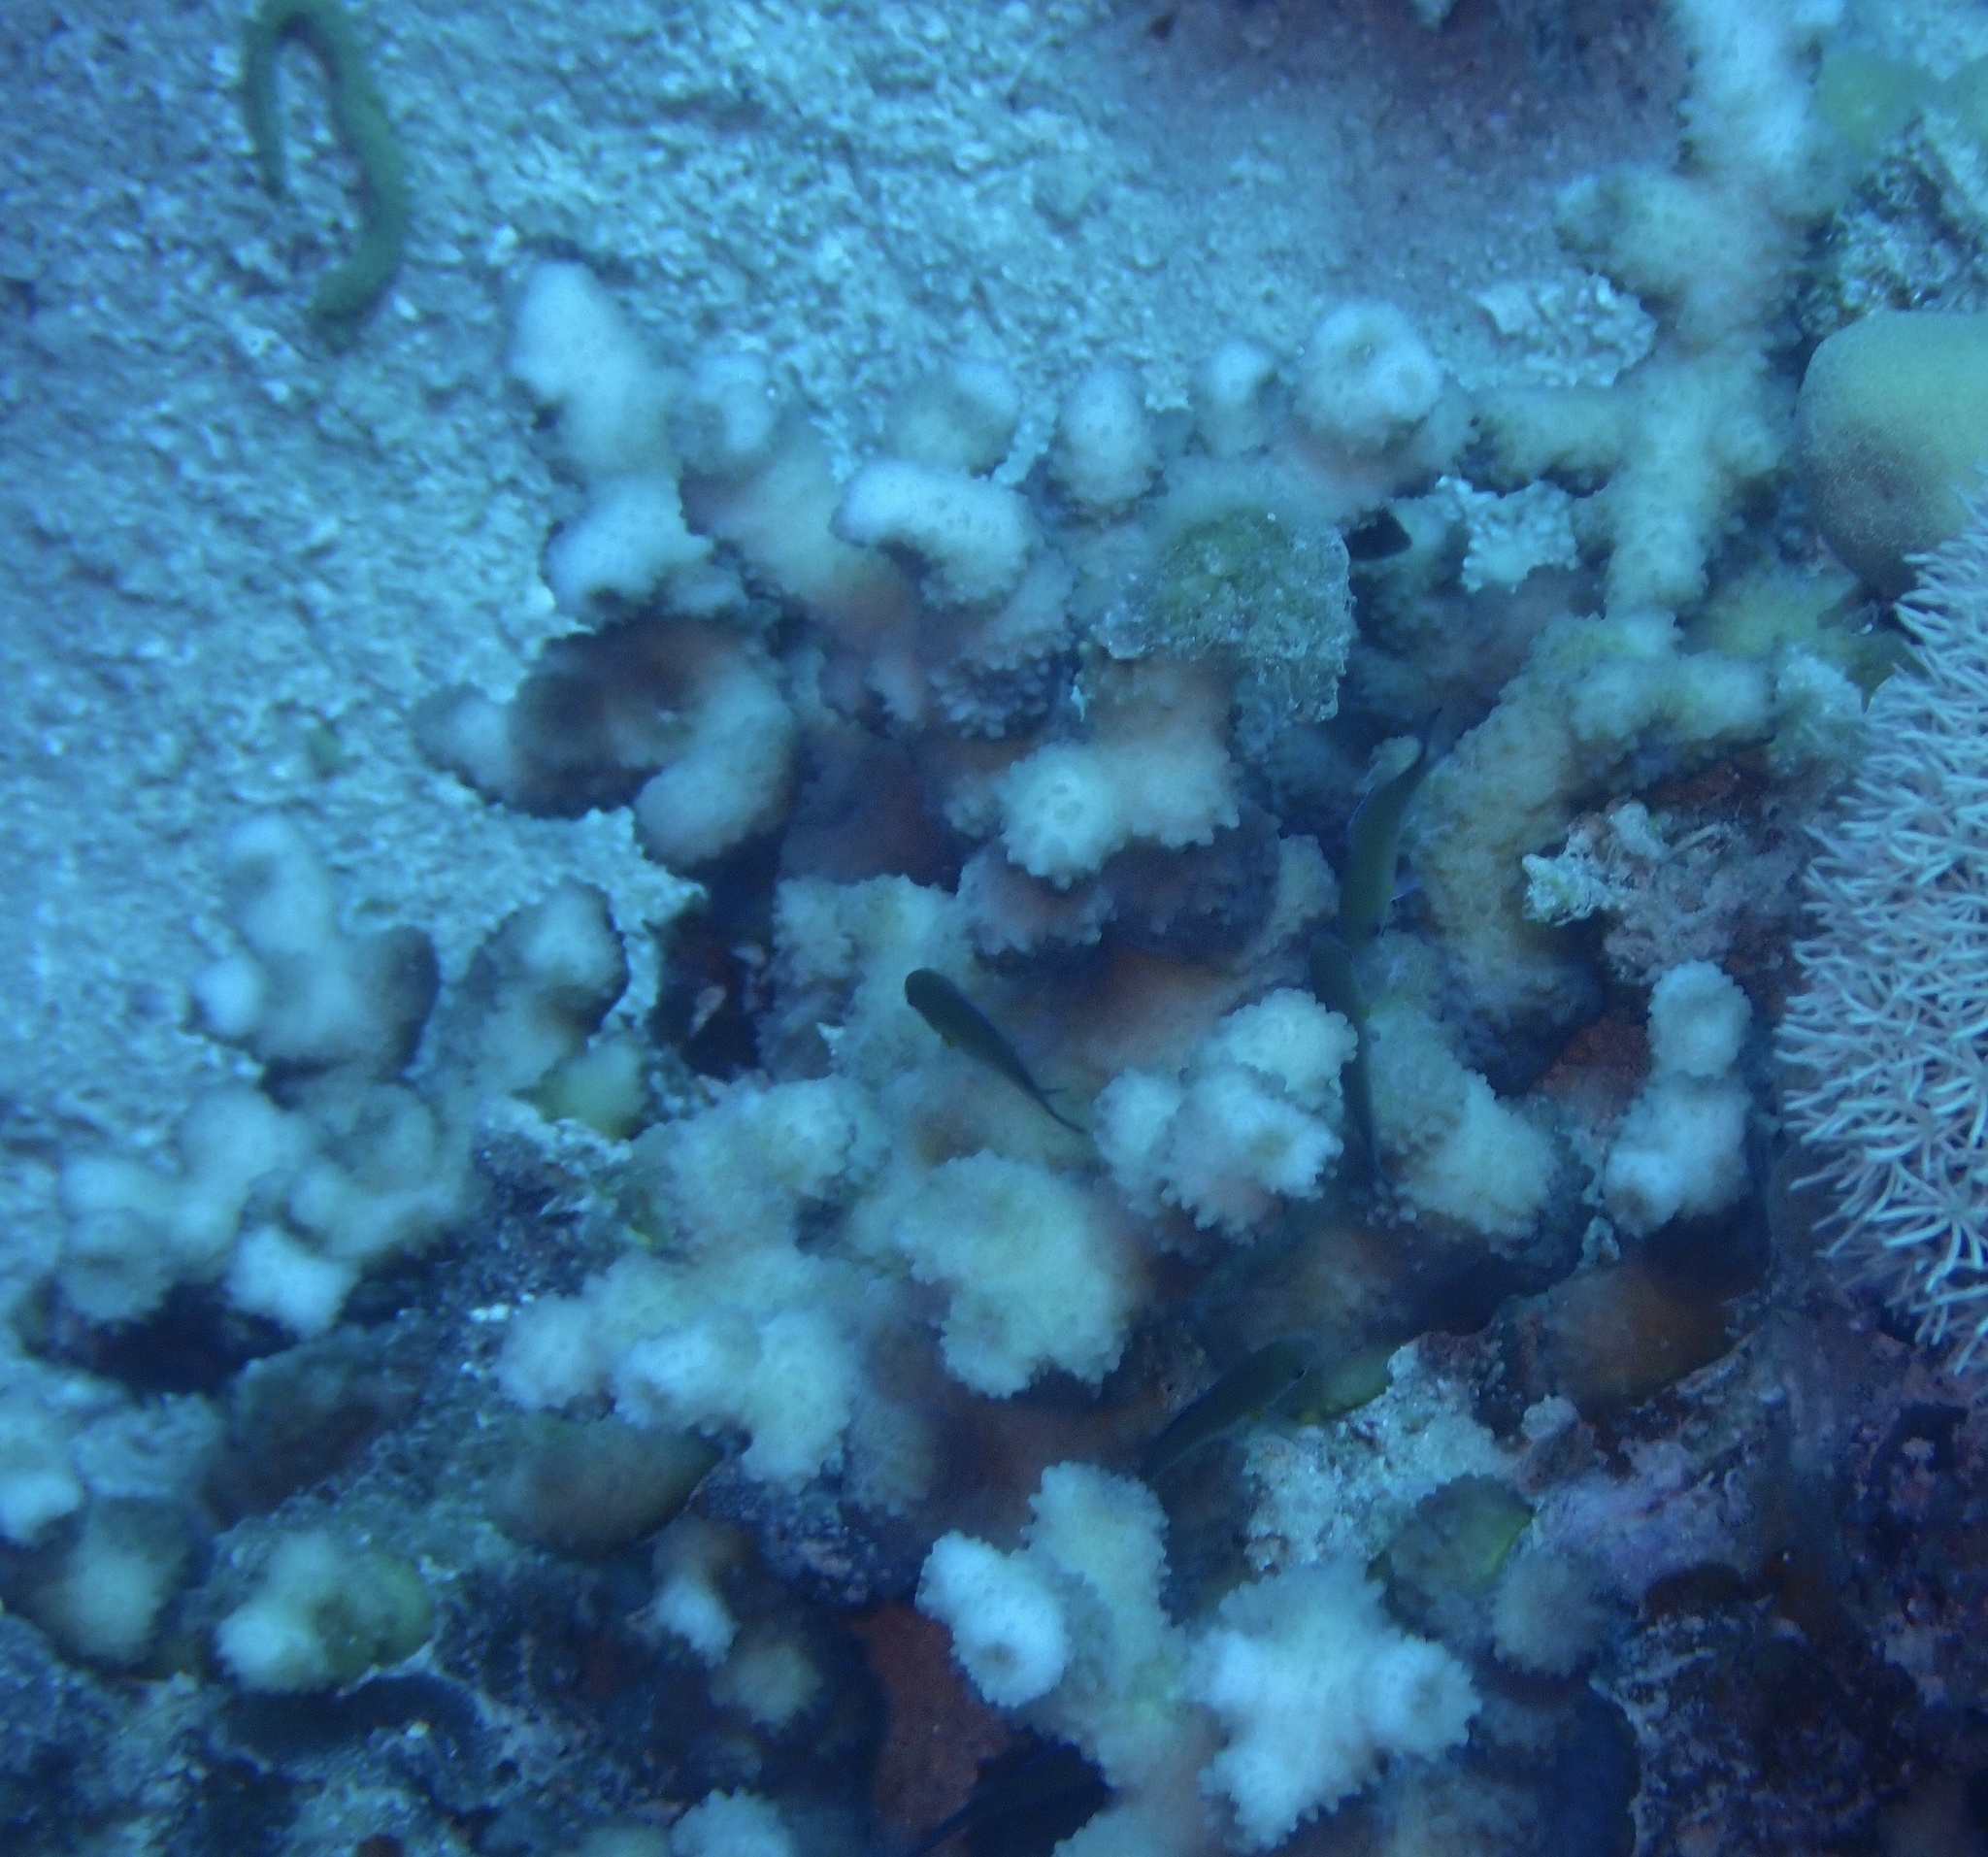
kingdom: Animalia
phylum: Cnidaria
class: Anthozoa
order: Scleractinia
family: Merulinidae
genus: Echinopora
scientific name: Echinopora fruticulosa
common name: Hedgehog coral
